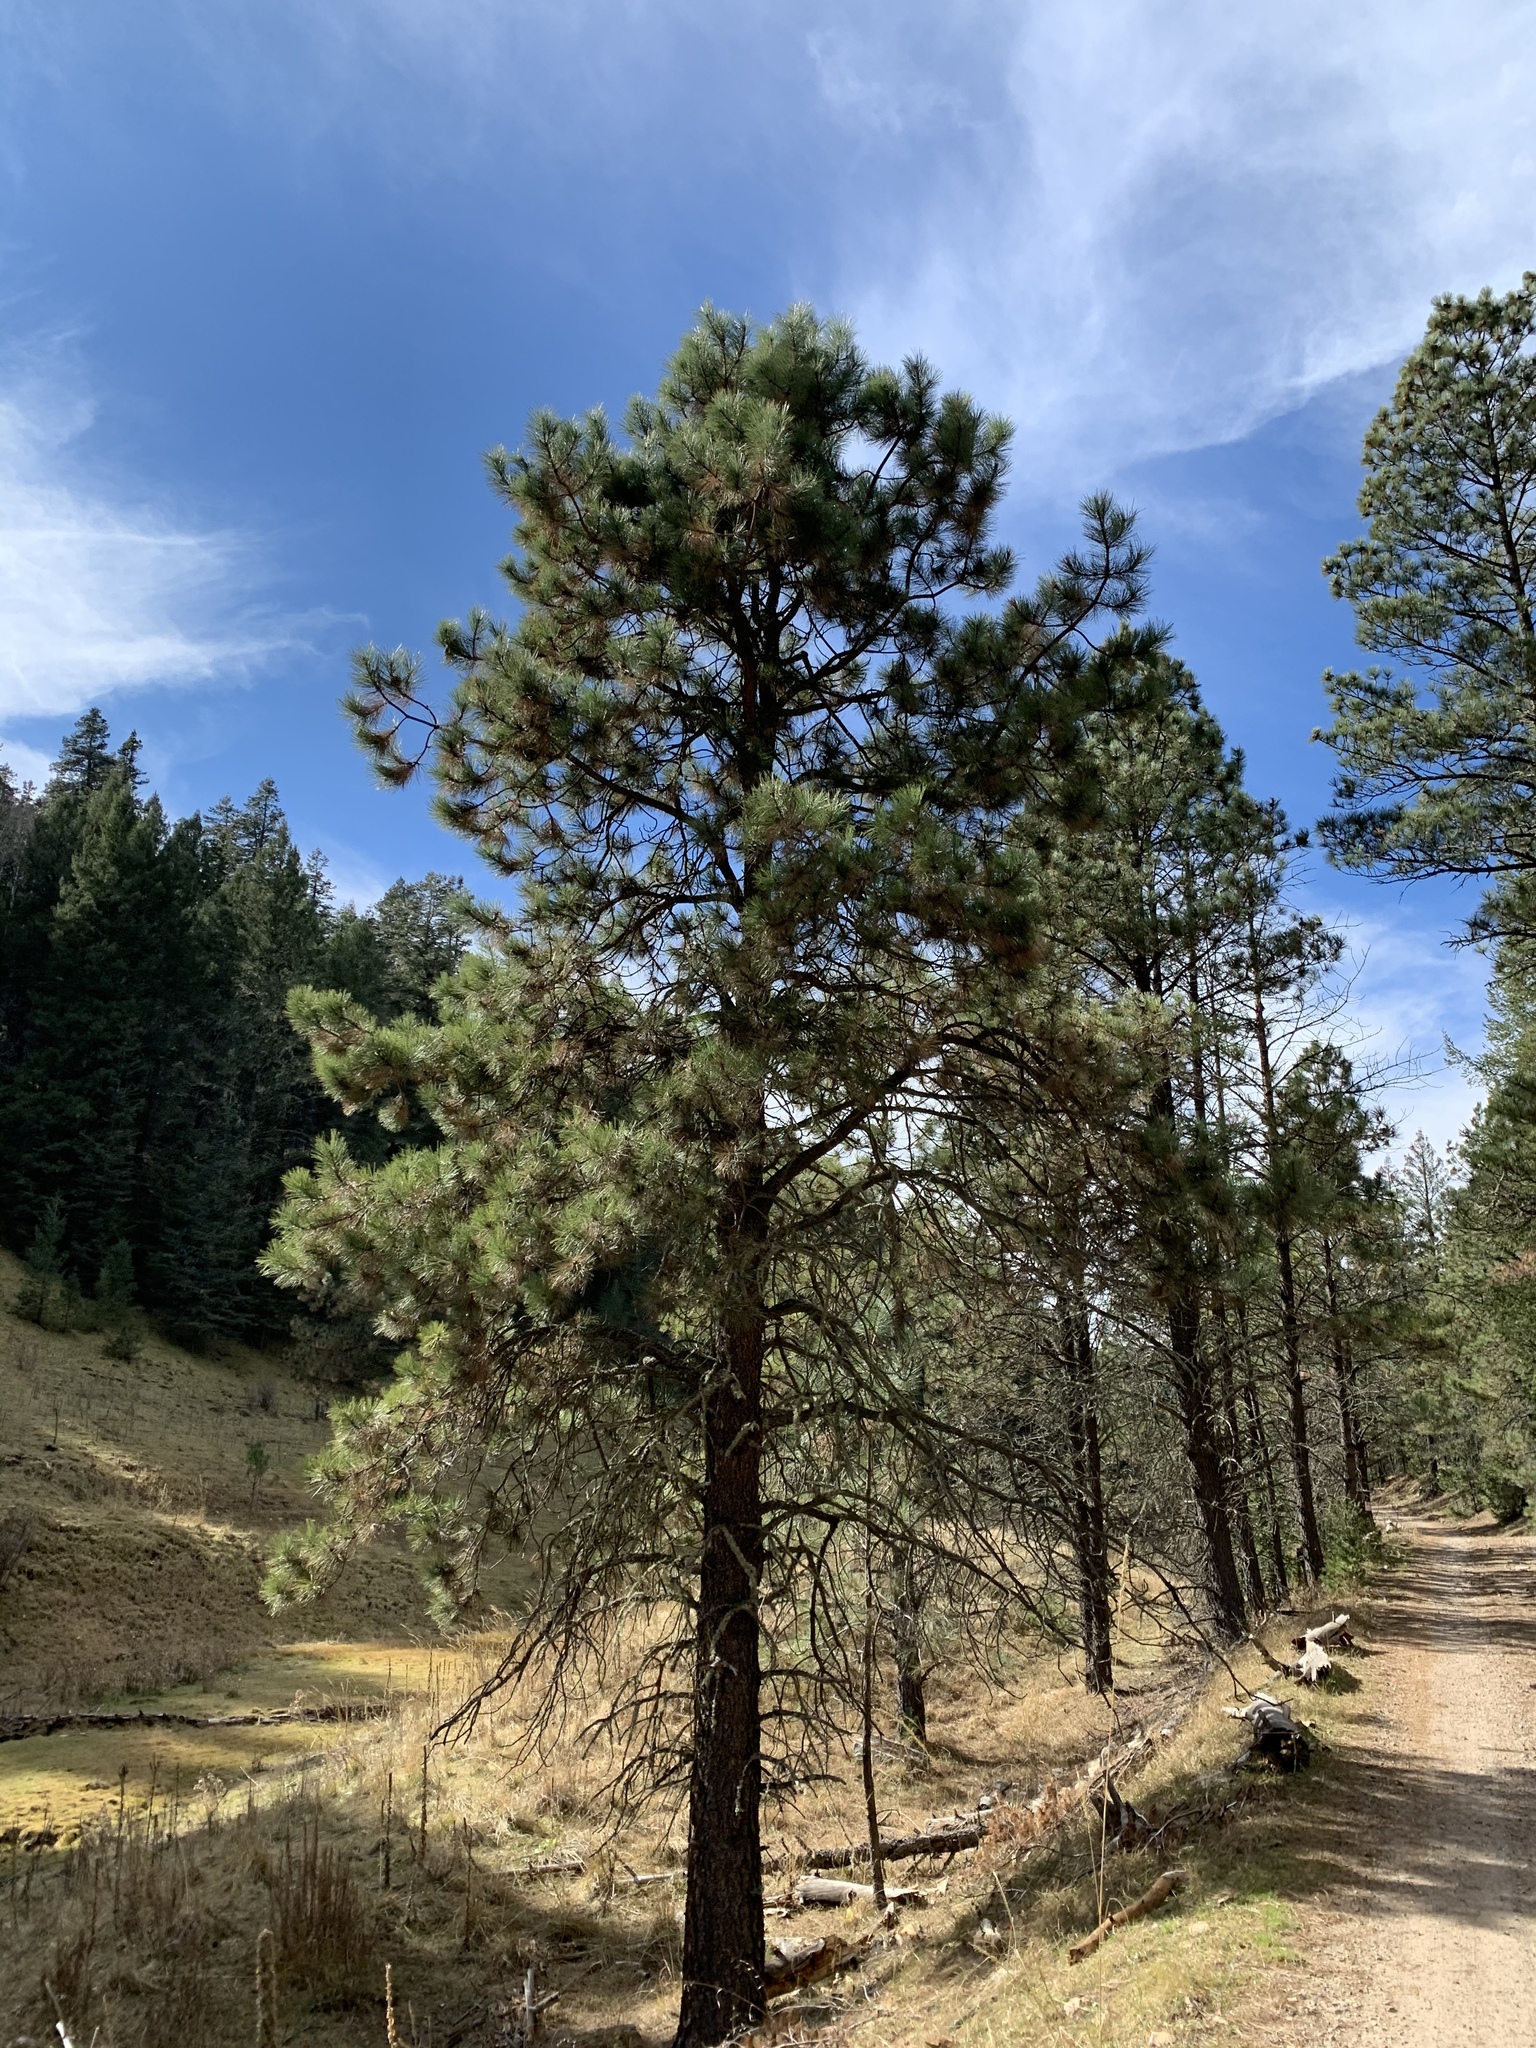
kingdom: Plantae
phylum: Tracheophyta
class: Pinopsida
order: Pinales
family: Pinaceae
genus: Pinus
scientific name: Pinus ponderosa
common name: Western yellow-pine
